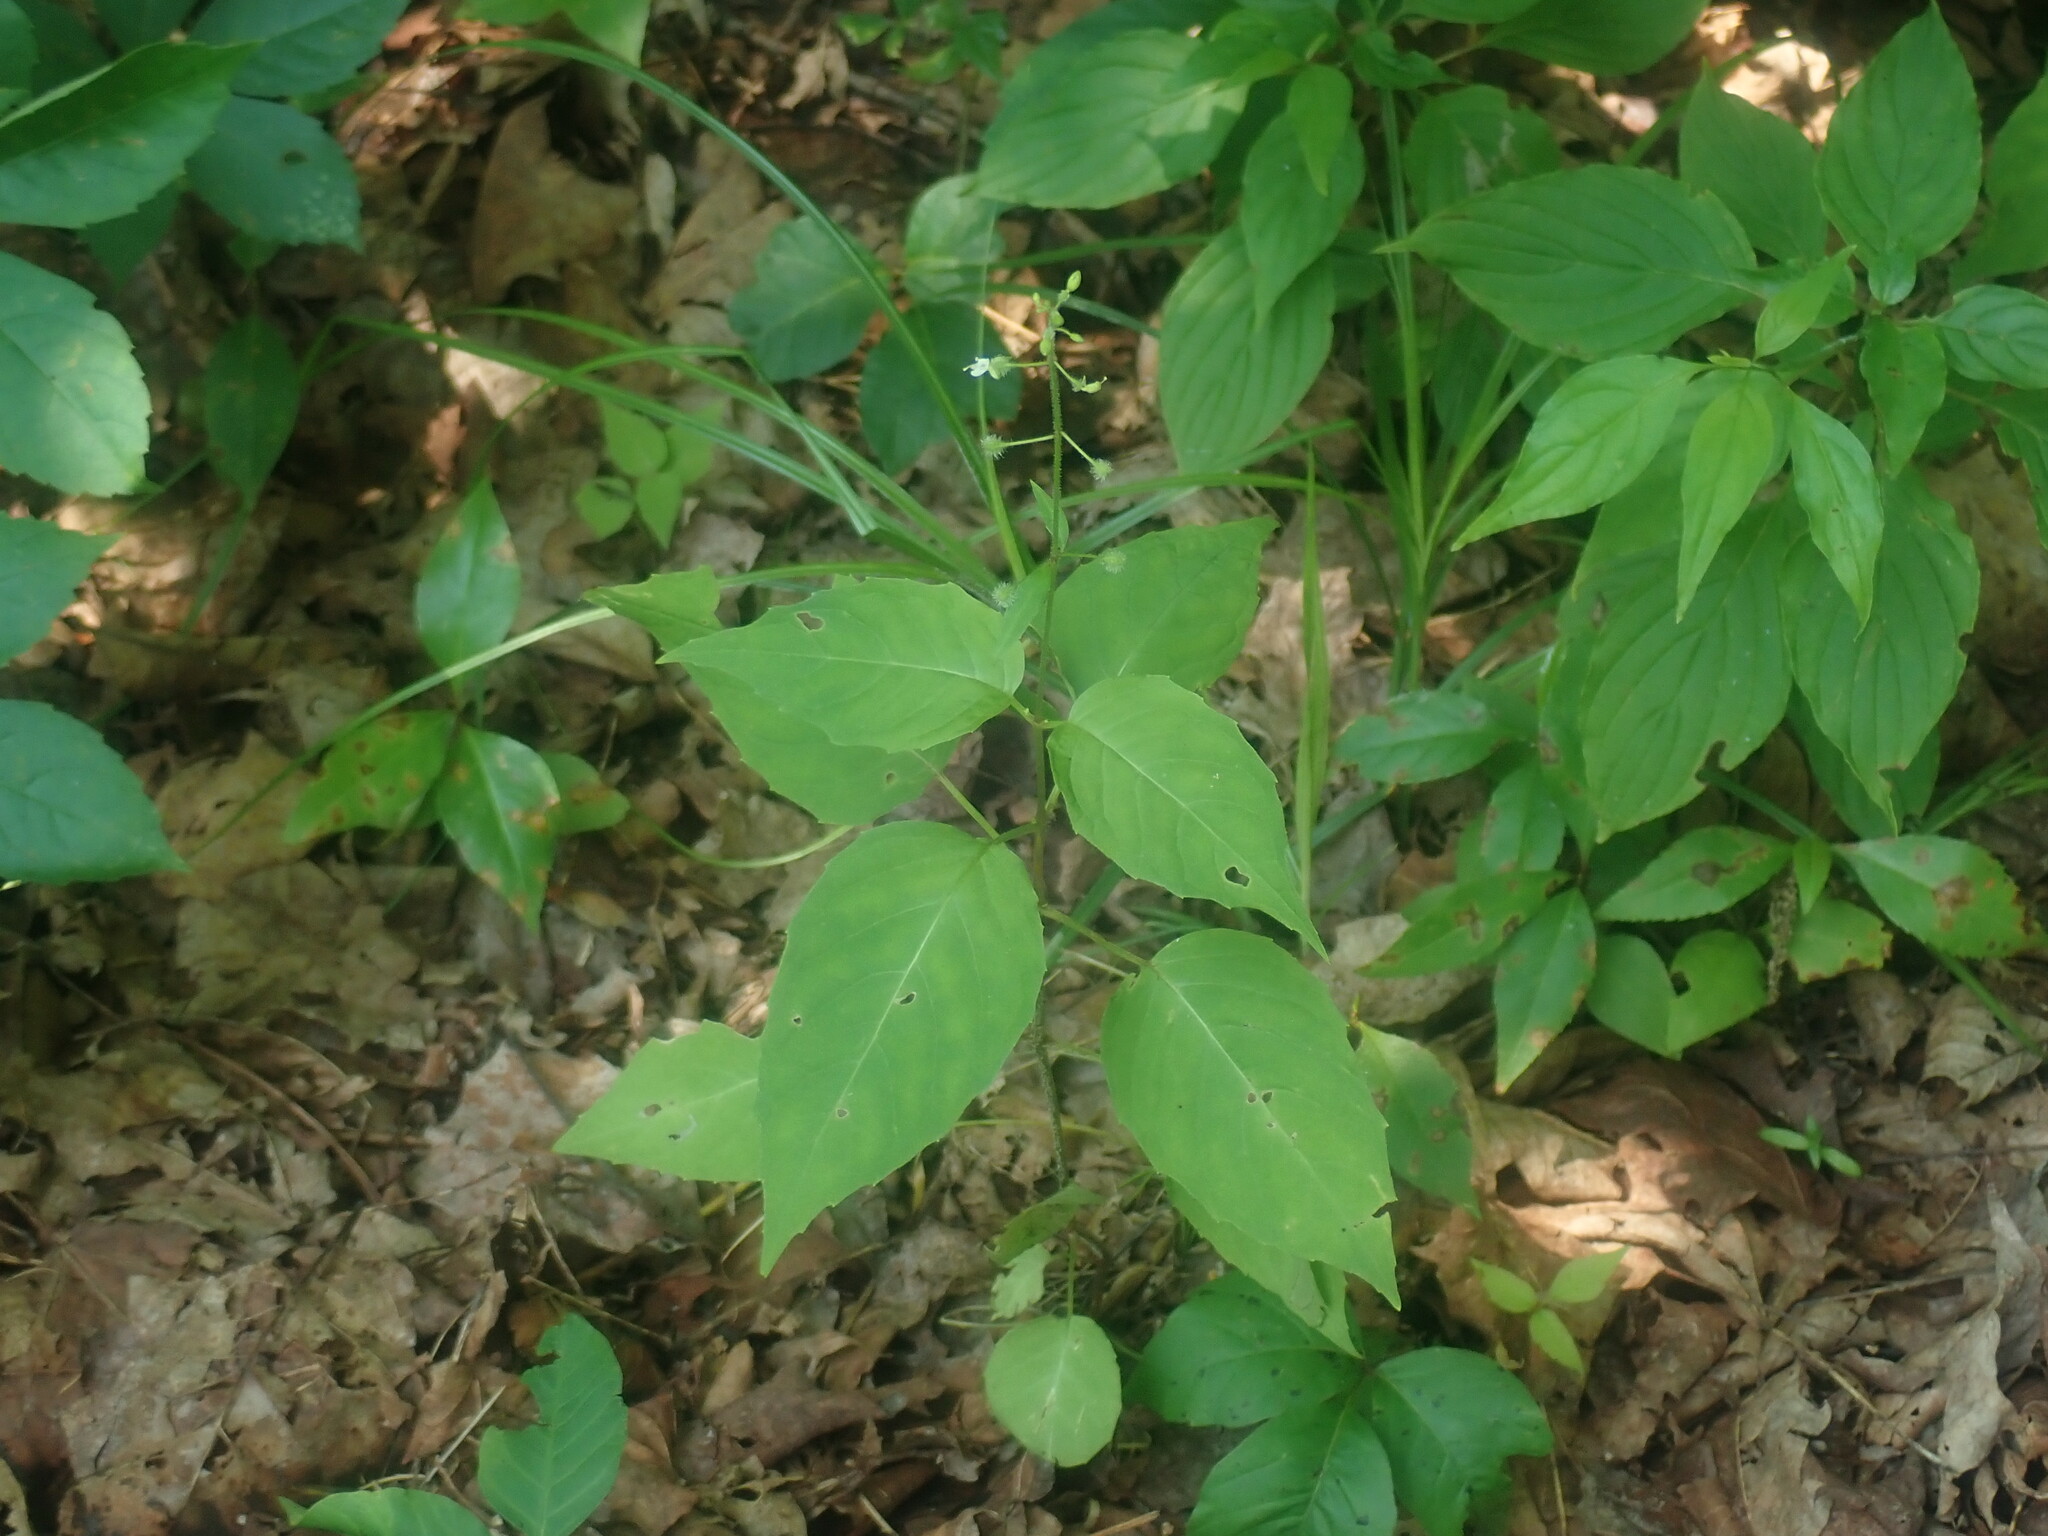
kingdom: Plantae
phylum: Tracheophyta
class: Magnoliopsida
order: Myrtales
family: Onagraceae
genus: Circaea
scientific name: Circaea canadensis
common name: Broad-leaved enchanter's nightshade
